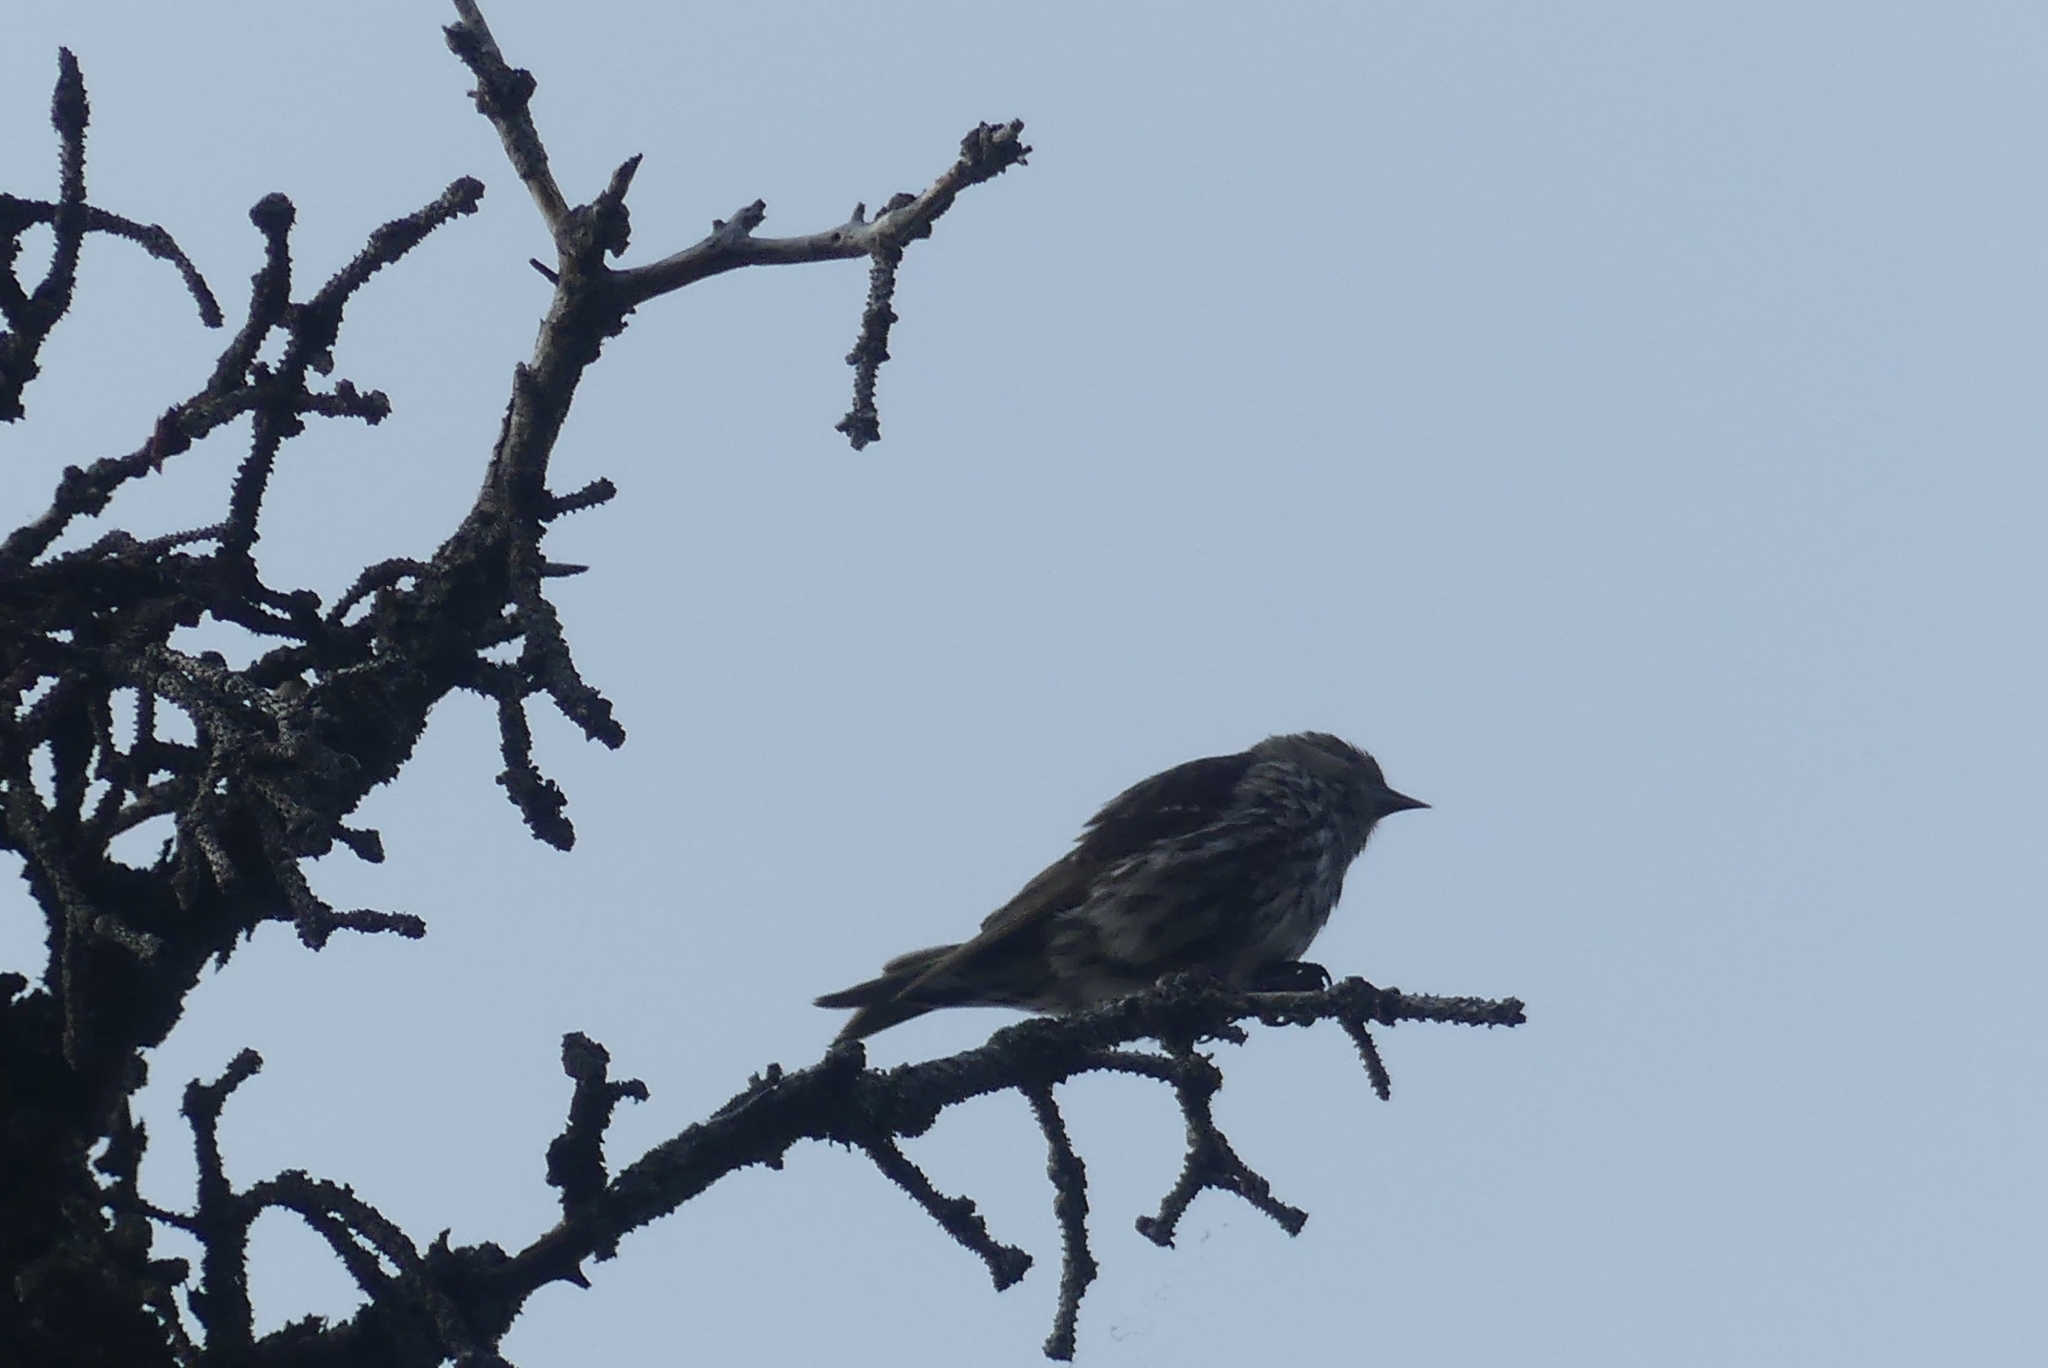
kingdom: Animalia
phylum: Chordata
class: Aves
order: Passeriformes
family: Fringillidae
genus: Spinus
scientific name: Spinus pinus
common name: Pine siskin
